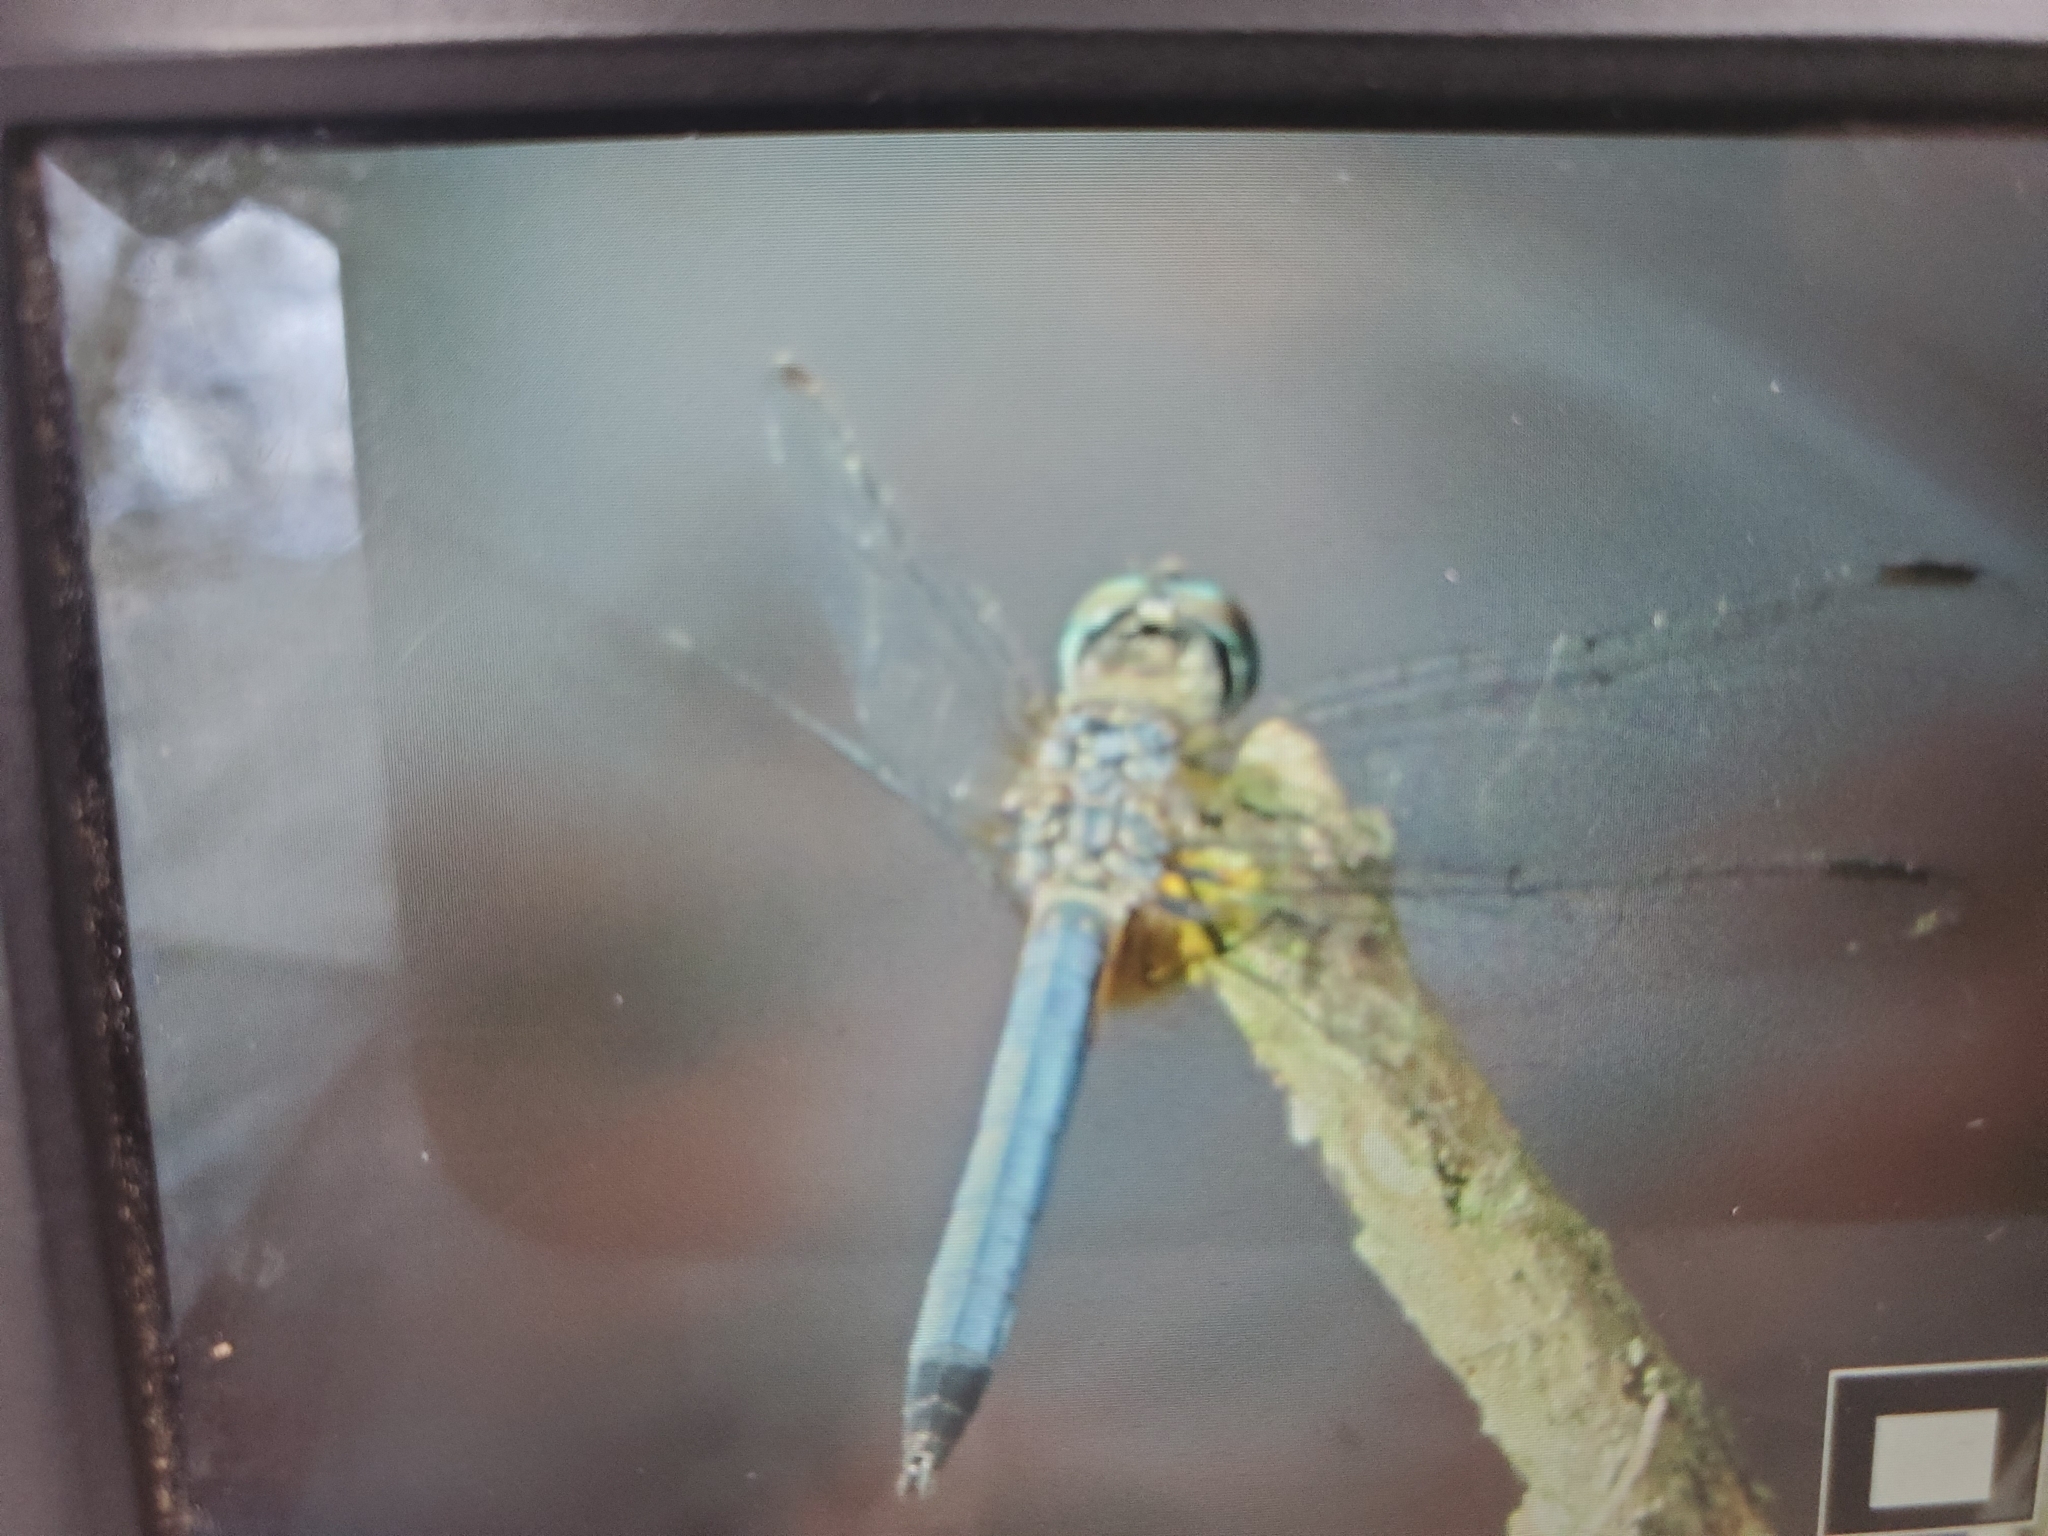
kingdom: Animalia
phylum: Arthropoda
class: Insecta
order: Odonata
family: Libellulidae
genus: Pachydiplax
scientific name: Pachydiplax longipennis
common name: Blue dasher
